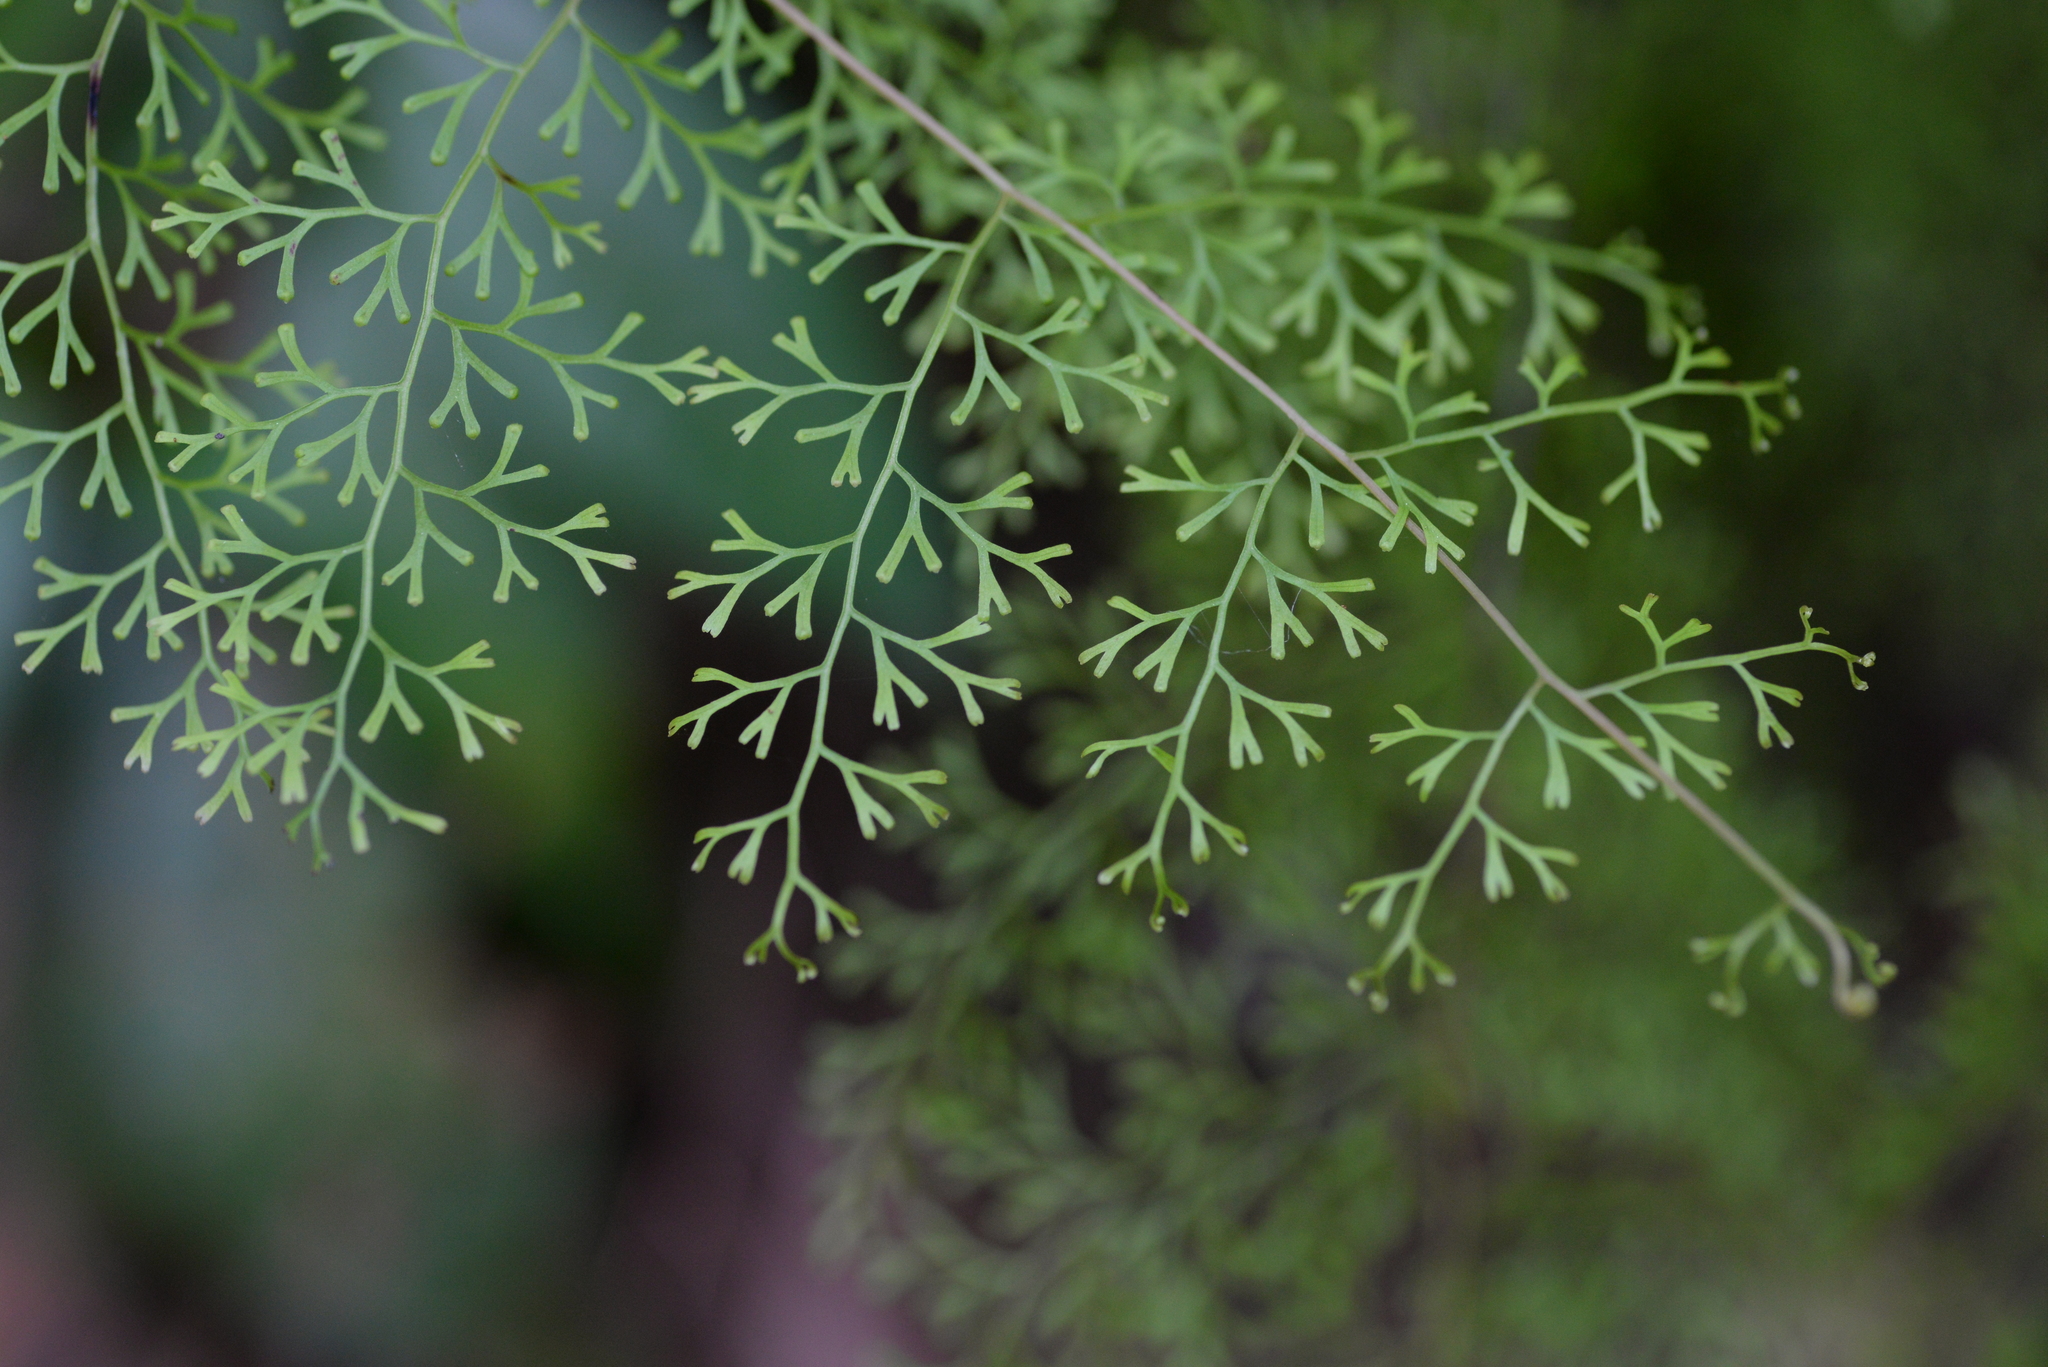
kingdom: Plantae
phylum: Tracheophyta
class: Polypodiopsida
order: Polypodiales
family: Lindsaeaceae
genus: Odontosoria
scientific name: Odontosoria schlechtendalii
